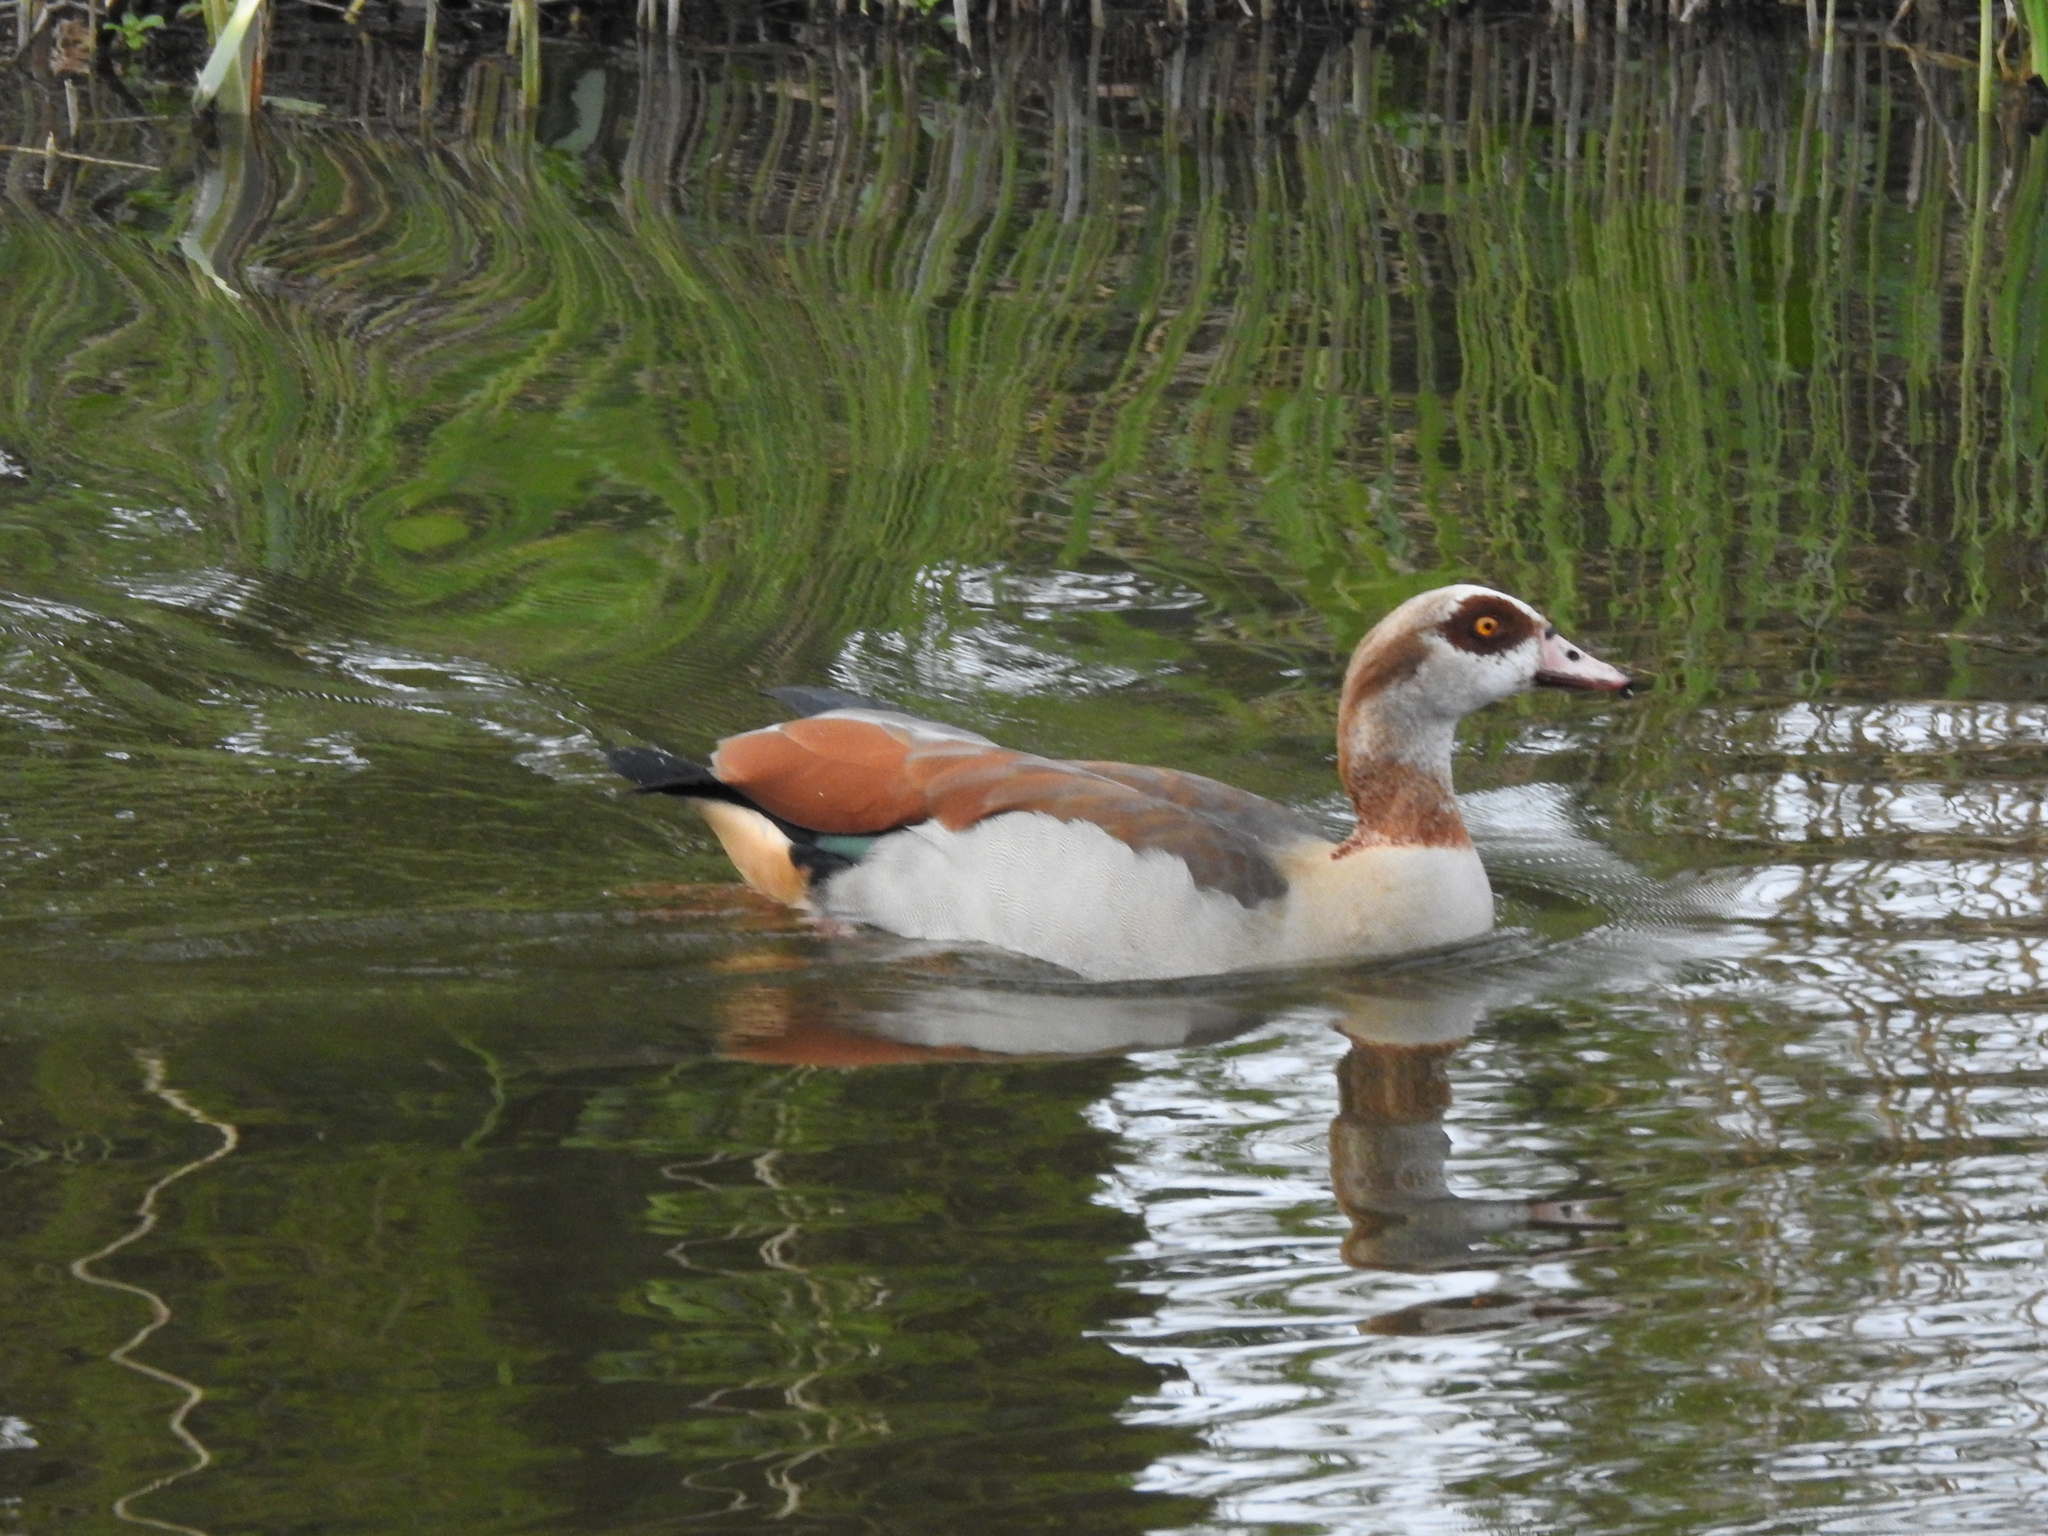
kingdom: Animalia
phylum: Chordata
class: Aves
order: Anseriformes
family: Anatidae
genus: Alopochen
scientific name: Alopochen aegyptiaca
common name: Egyptian goose
